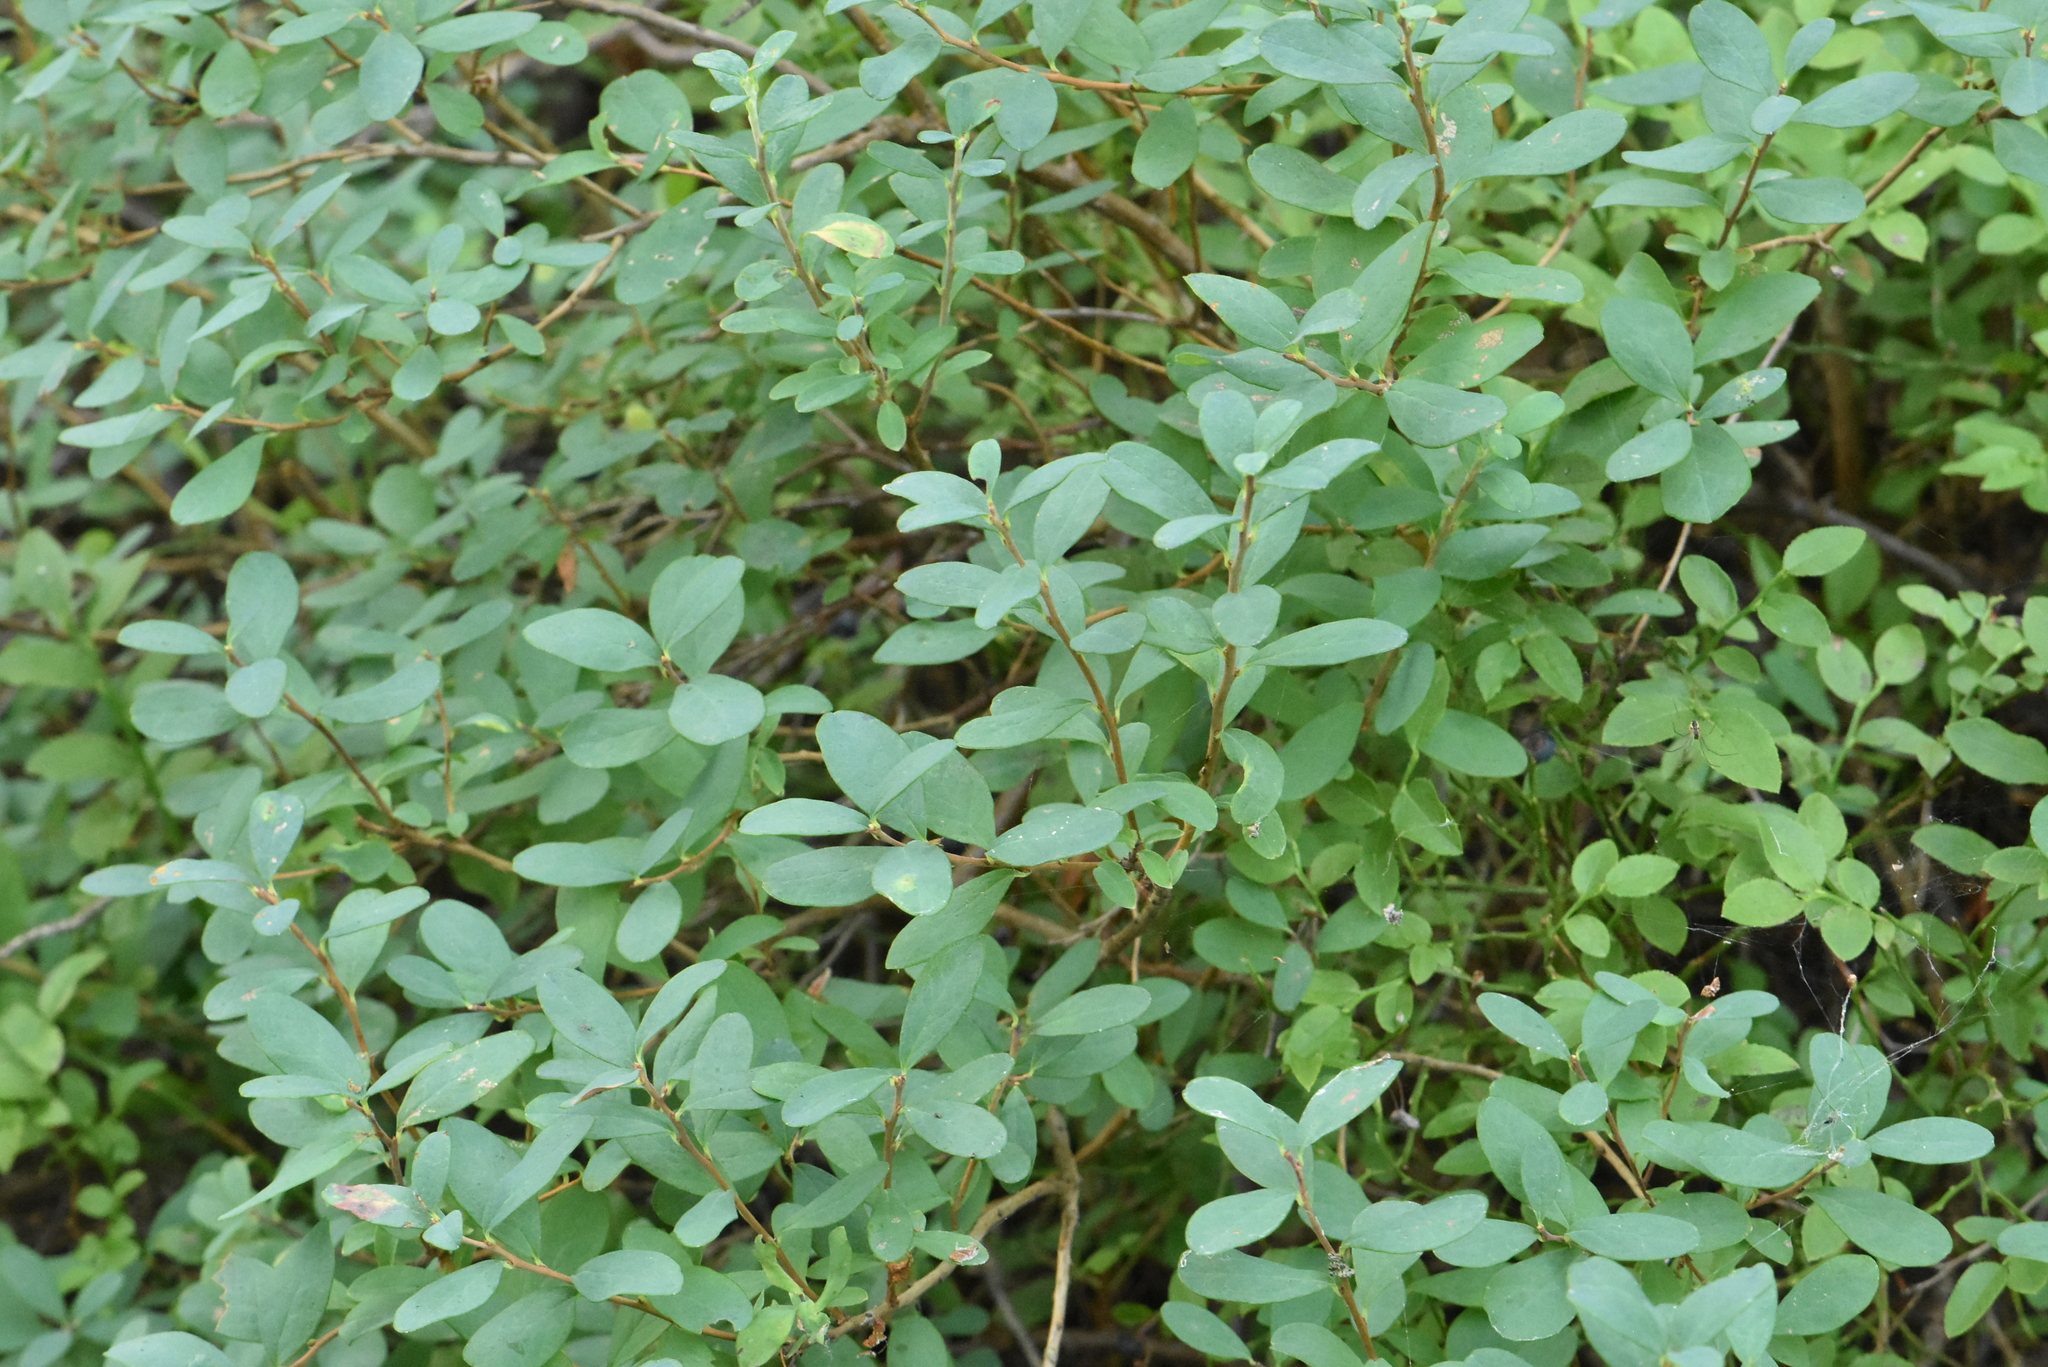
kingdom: Plantae
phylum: Tracheophyta
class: Magnoliopsida
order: Ericales
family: Ericaceae
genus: Vaccinium
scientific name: Vaccinium uliginosum
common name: Bog bilberry
